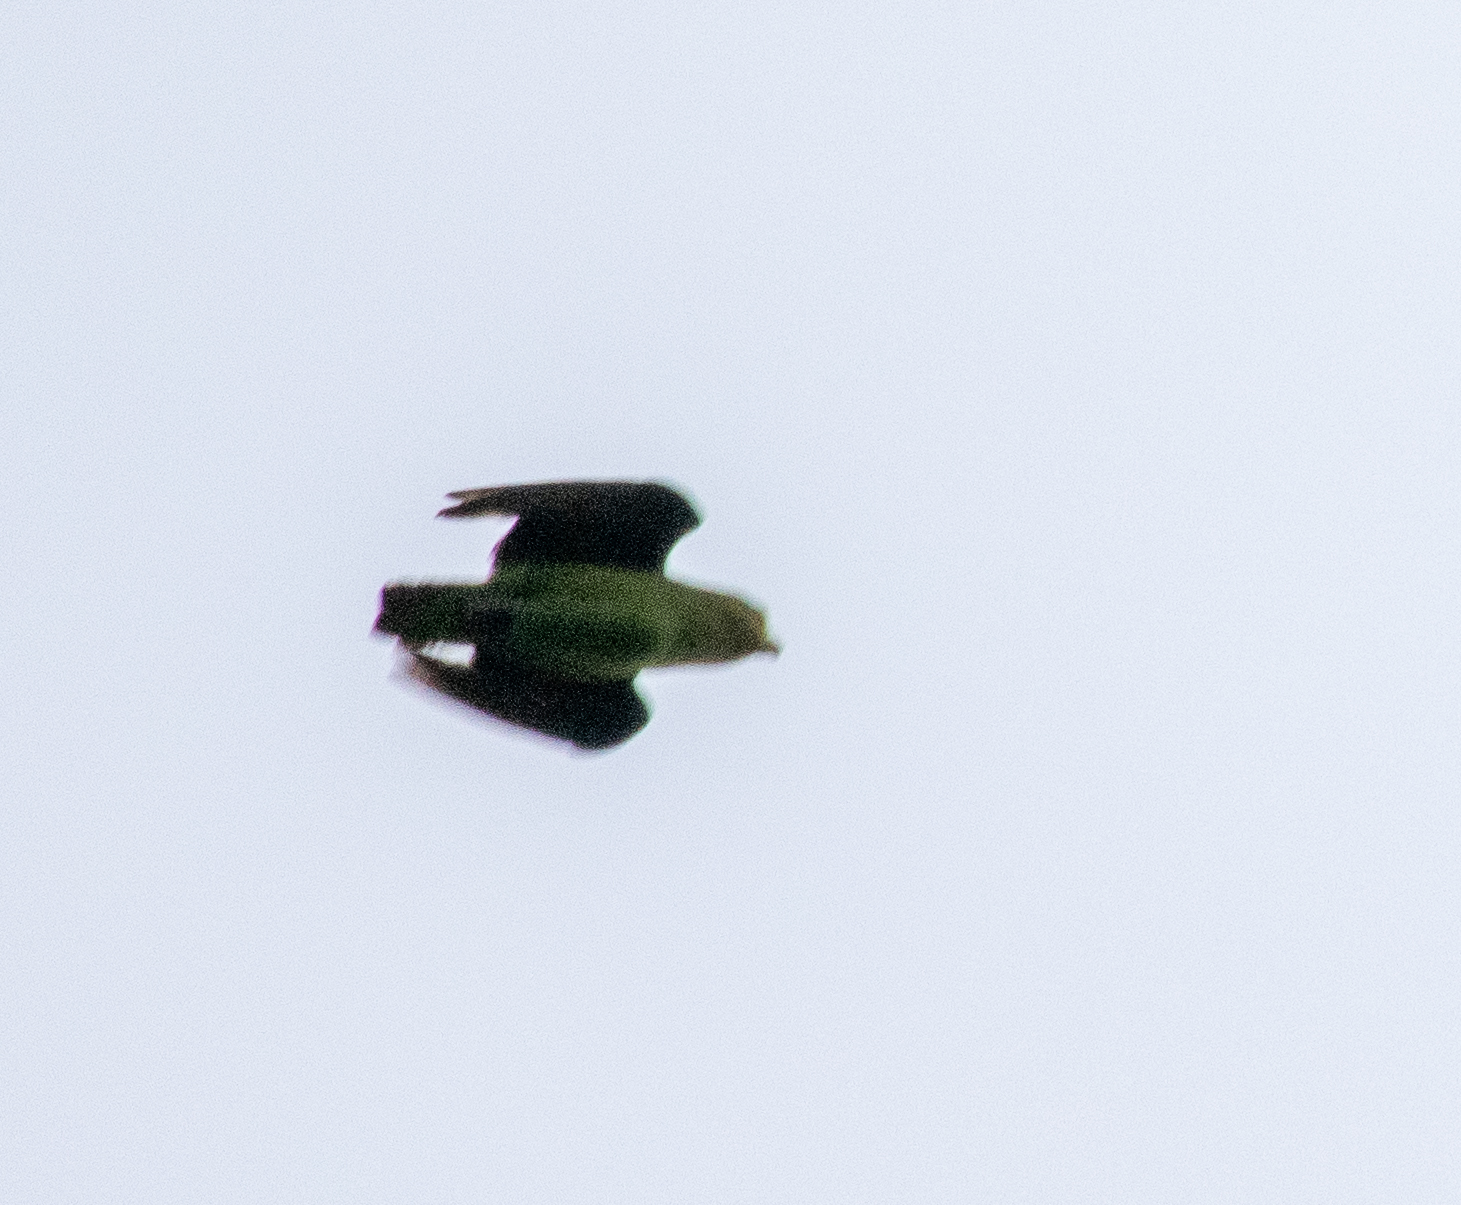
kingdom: Animalia
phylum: Chordata
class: Aves
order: Psittaciformes
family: Psittacidae
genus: Touit
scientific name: Touit surdus
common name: Golden-tailed parrotlet
